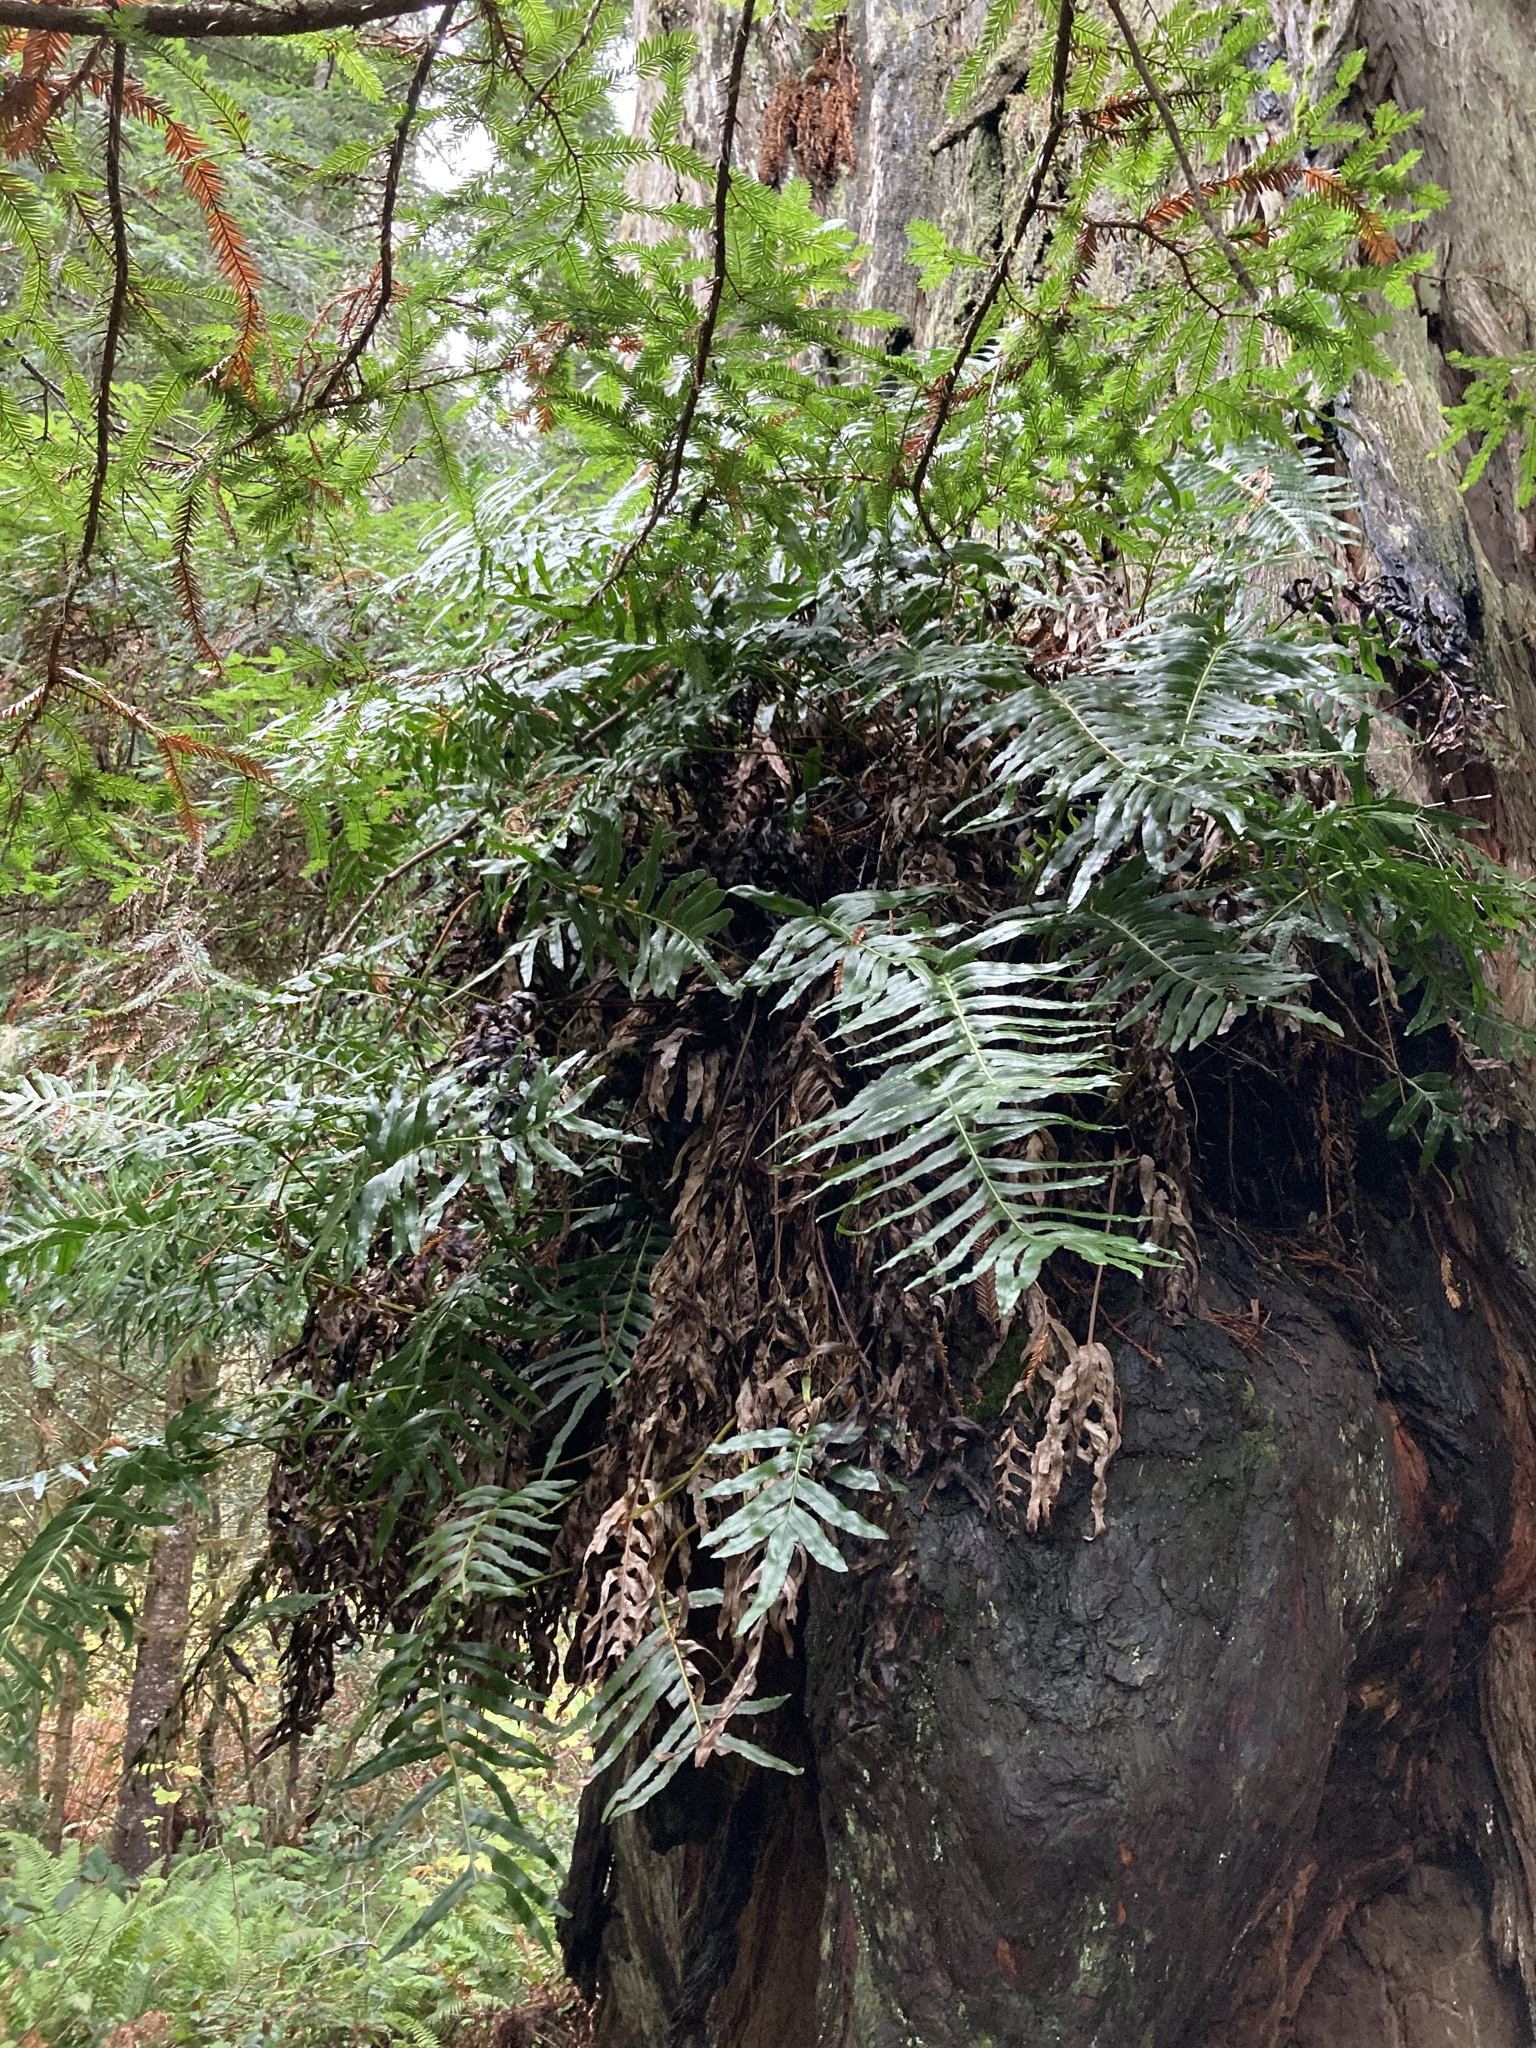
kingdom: Plantae
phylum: Tracheophyta
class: Polypodiopsida
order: Polypodiales
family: Polypodiaceae
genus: Polypodium
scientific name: Polypodium scouleri
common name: Scouler's polypody
